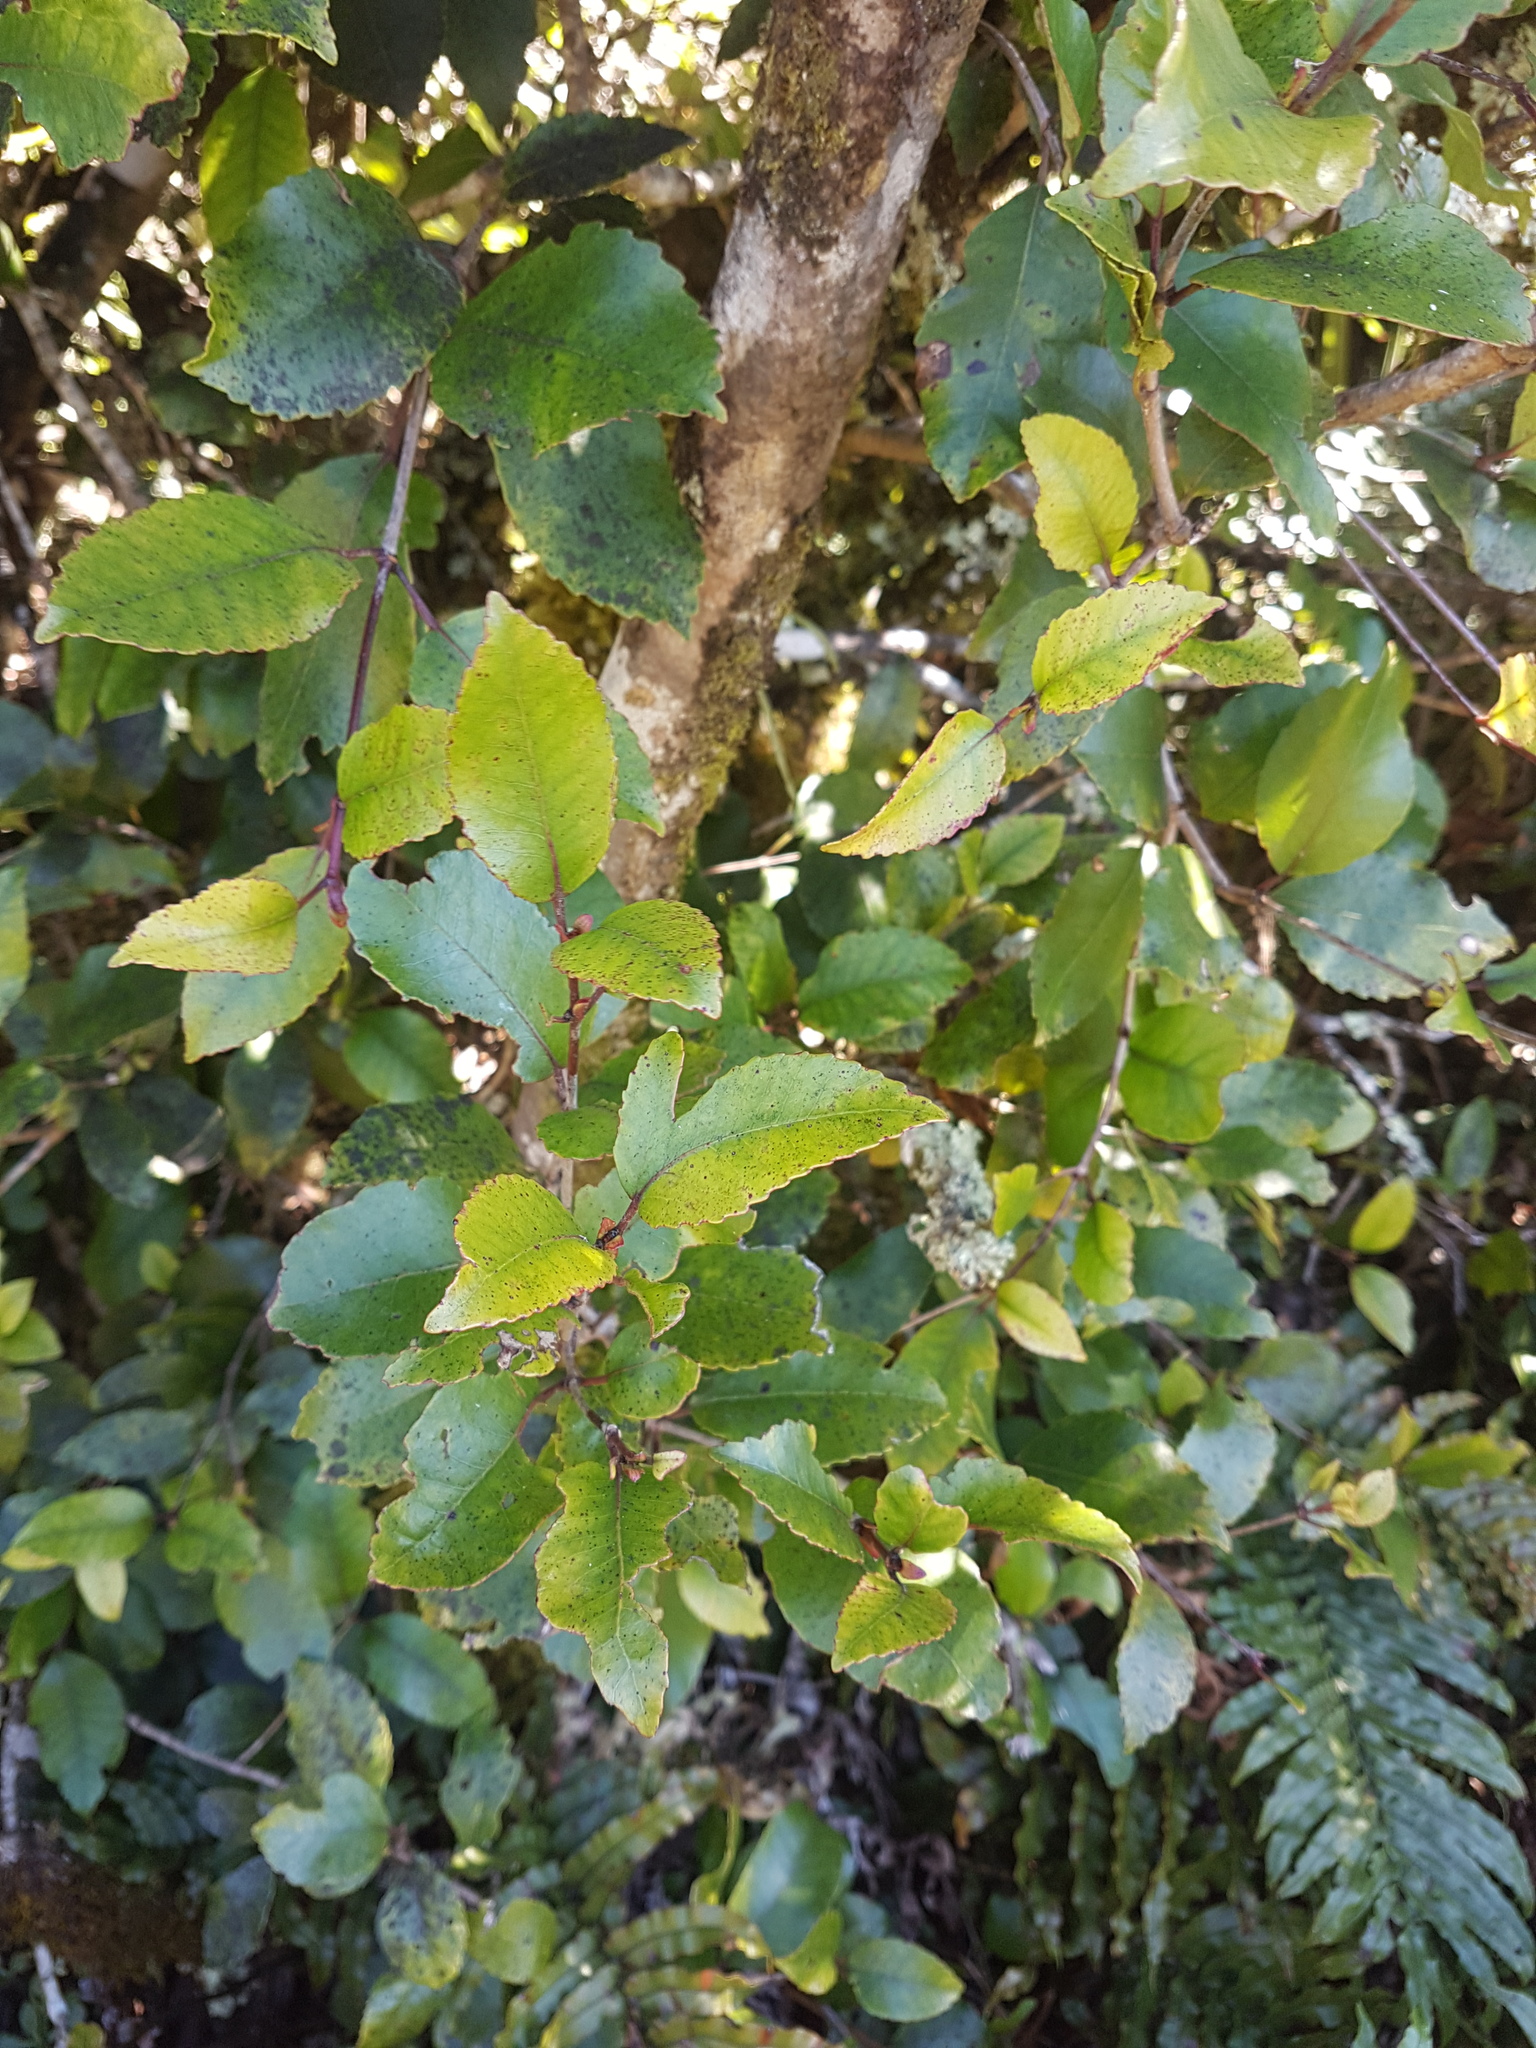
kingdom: Plantae
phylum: Tracheophyta
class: Magnoliopsida
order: Oxalidales
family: Cunoniaceae
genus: Pterophylla
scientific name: Pterophylla racemosa
